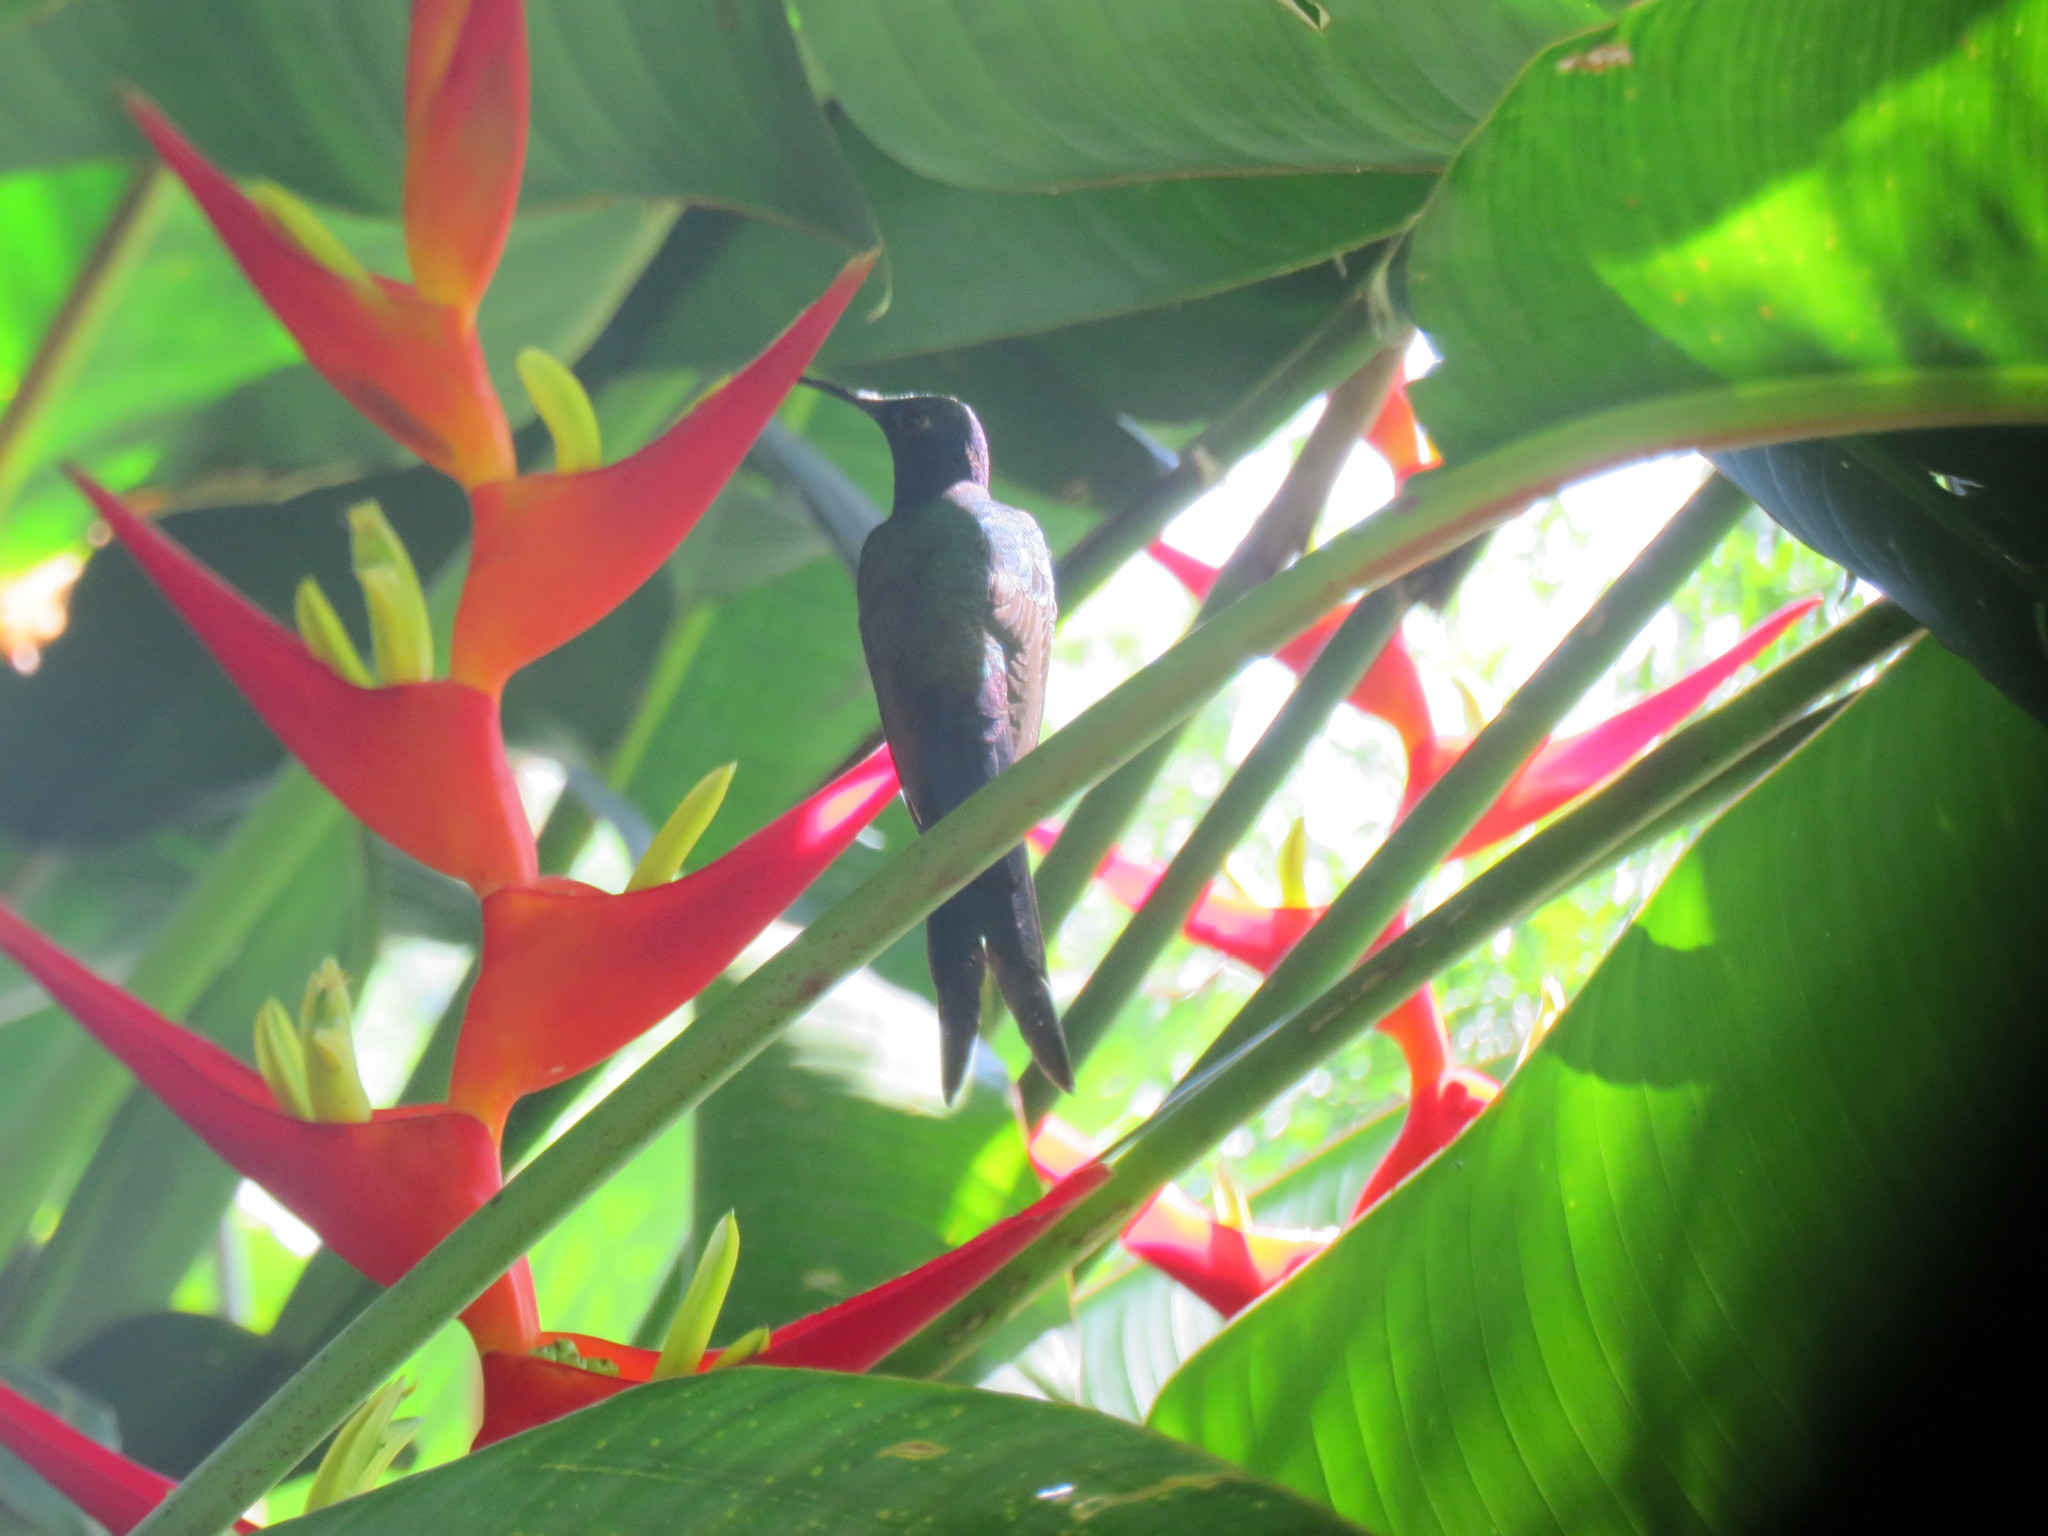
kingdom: Animalia
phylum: Chordata
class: Aves
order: Apodiformes
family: Trochilidae
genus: Eupetomena
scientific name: Eupetomena macroura
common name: Swallow-tailed hummingbird
